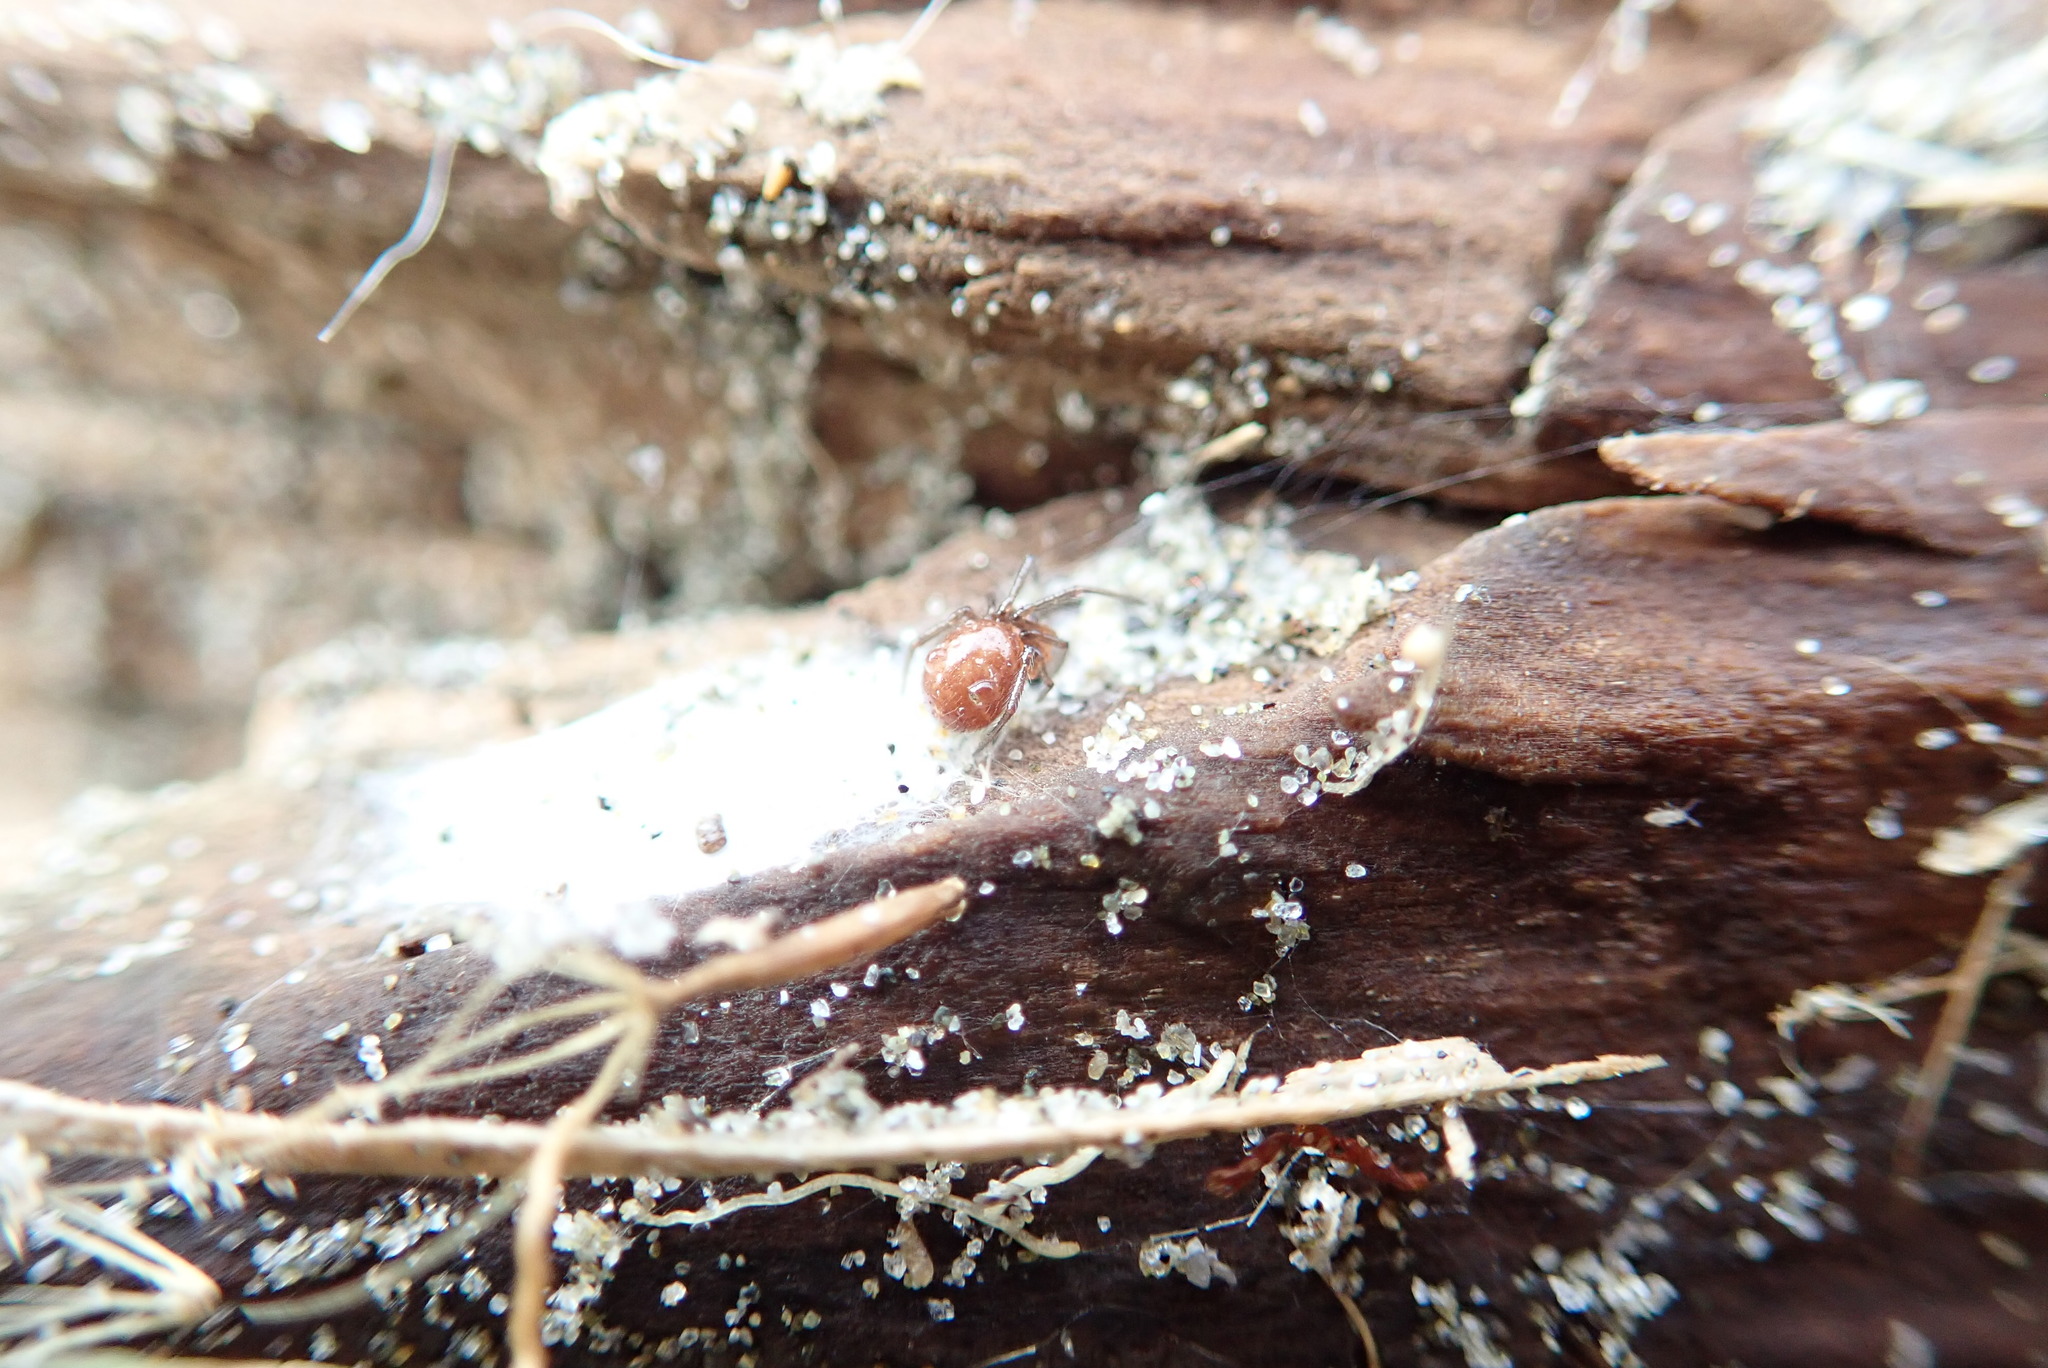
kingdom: Animalia
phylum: Arthropoda
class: Arachnida
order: Araneae
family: Theridiidae
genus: Steatoda
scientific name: Steatoda capensis
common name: Cobweb weaver
